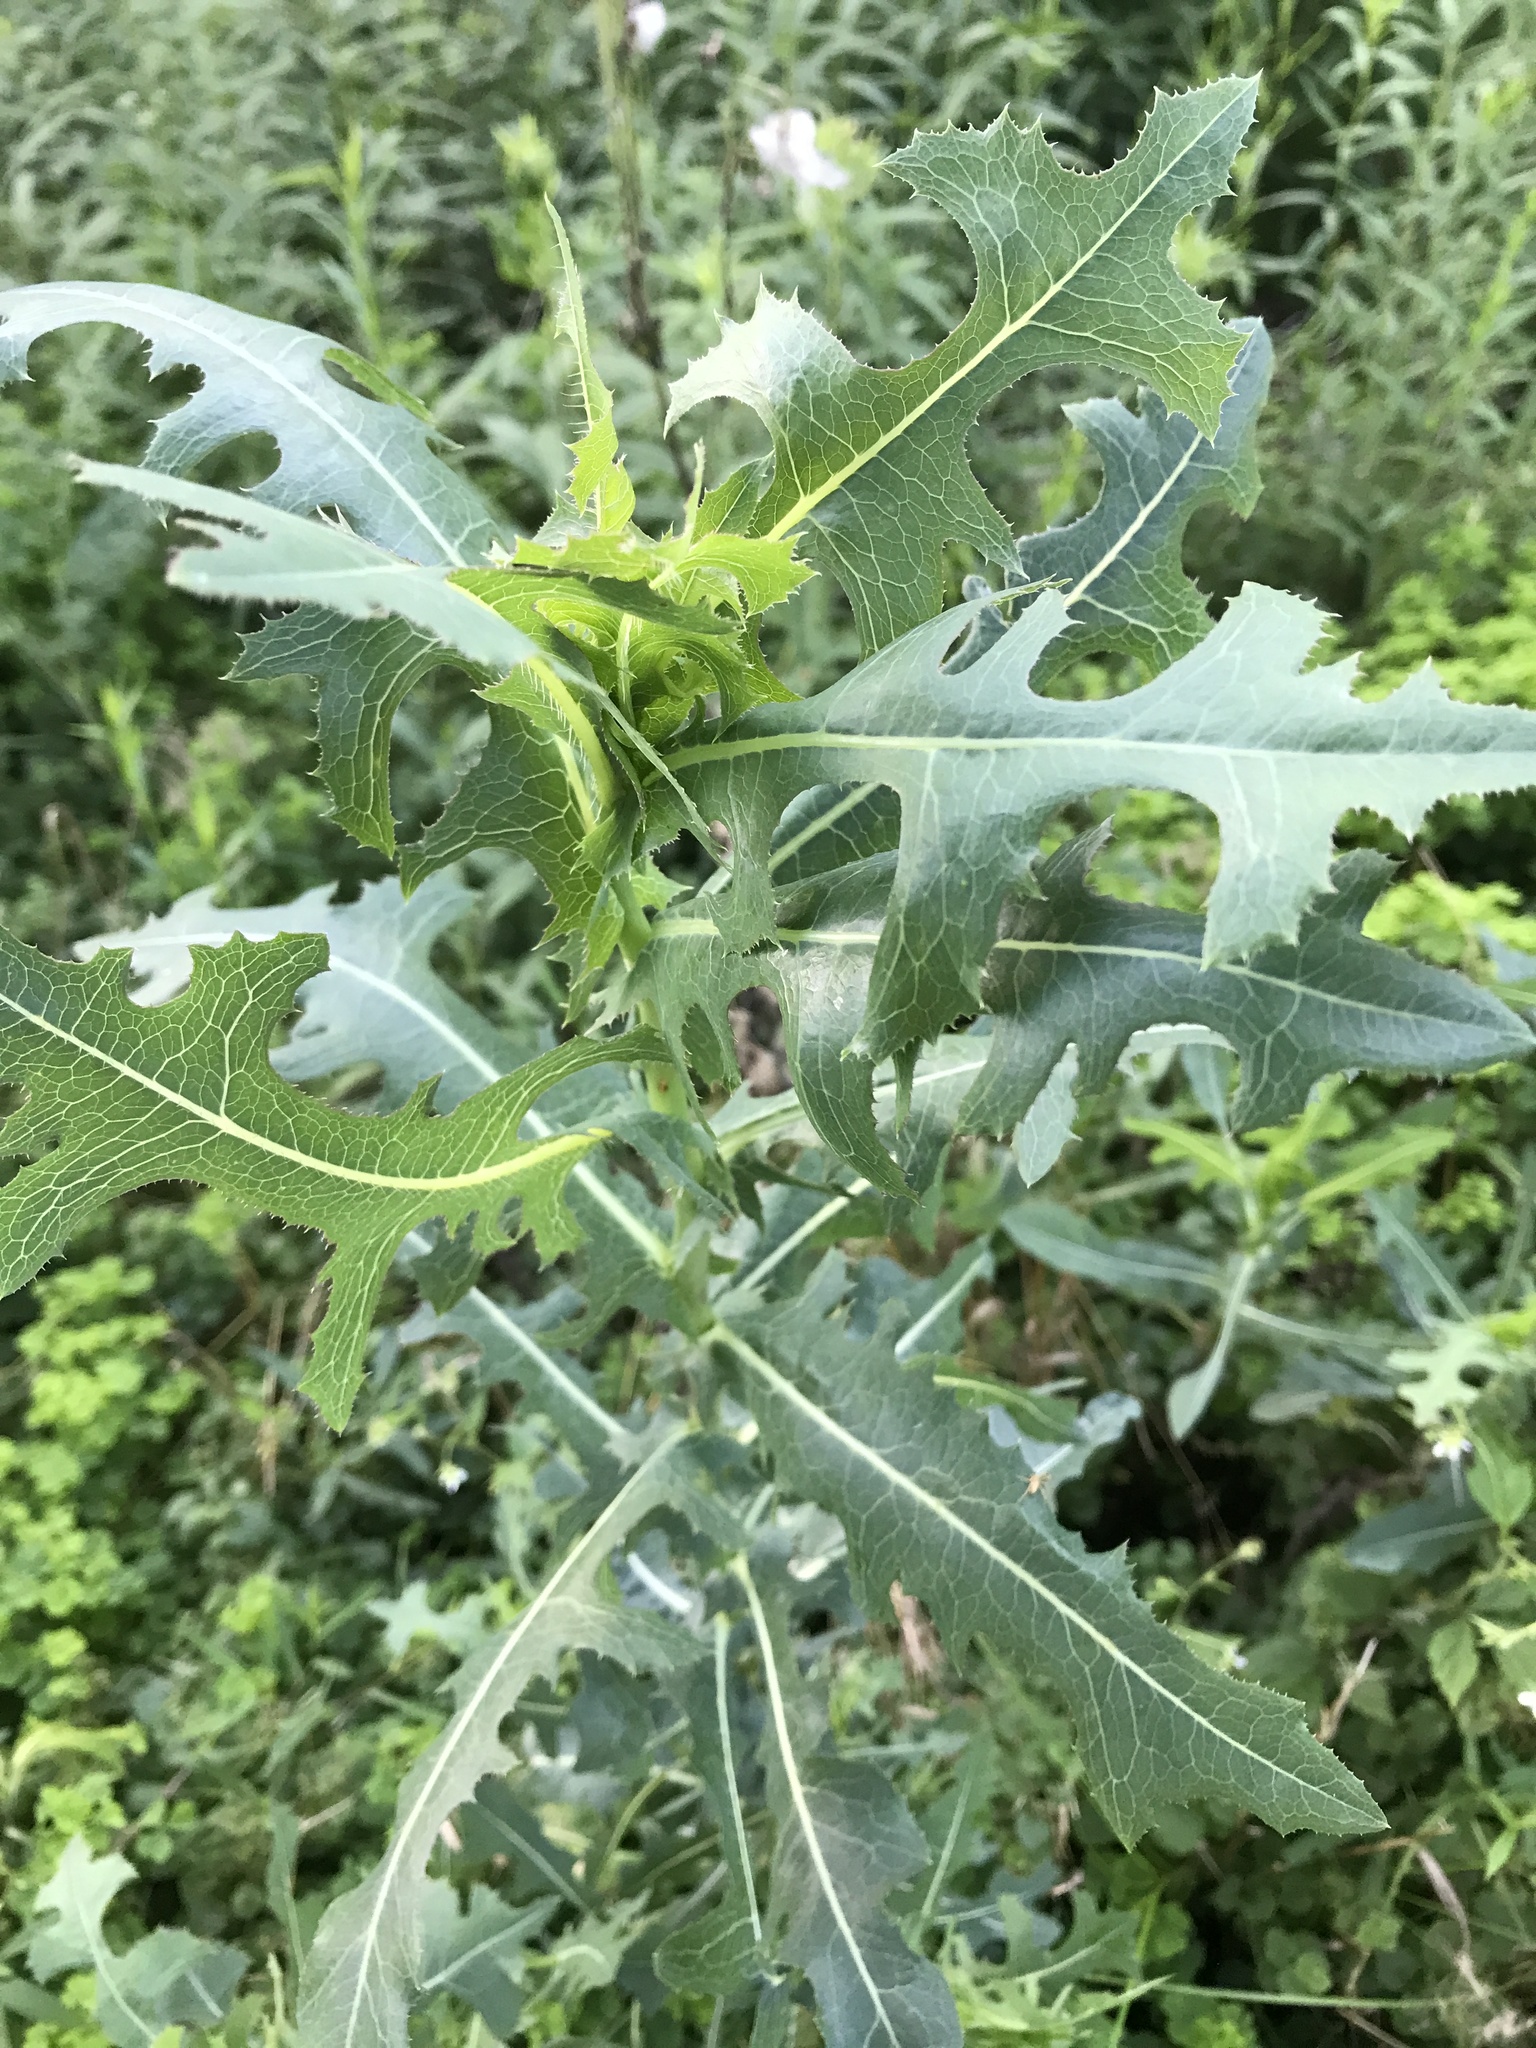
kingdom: Plantae
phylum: Tracheophyta
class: Magnoliopsida
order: Asterales
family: Asteraceae
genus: Lactuca
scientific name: Lactuca serriola
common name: Prickly lettuce
